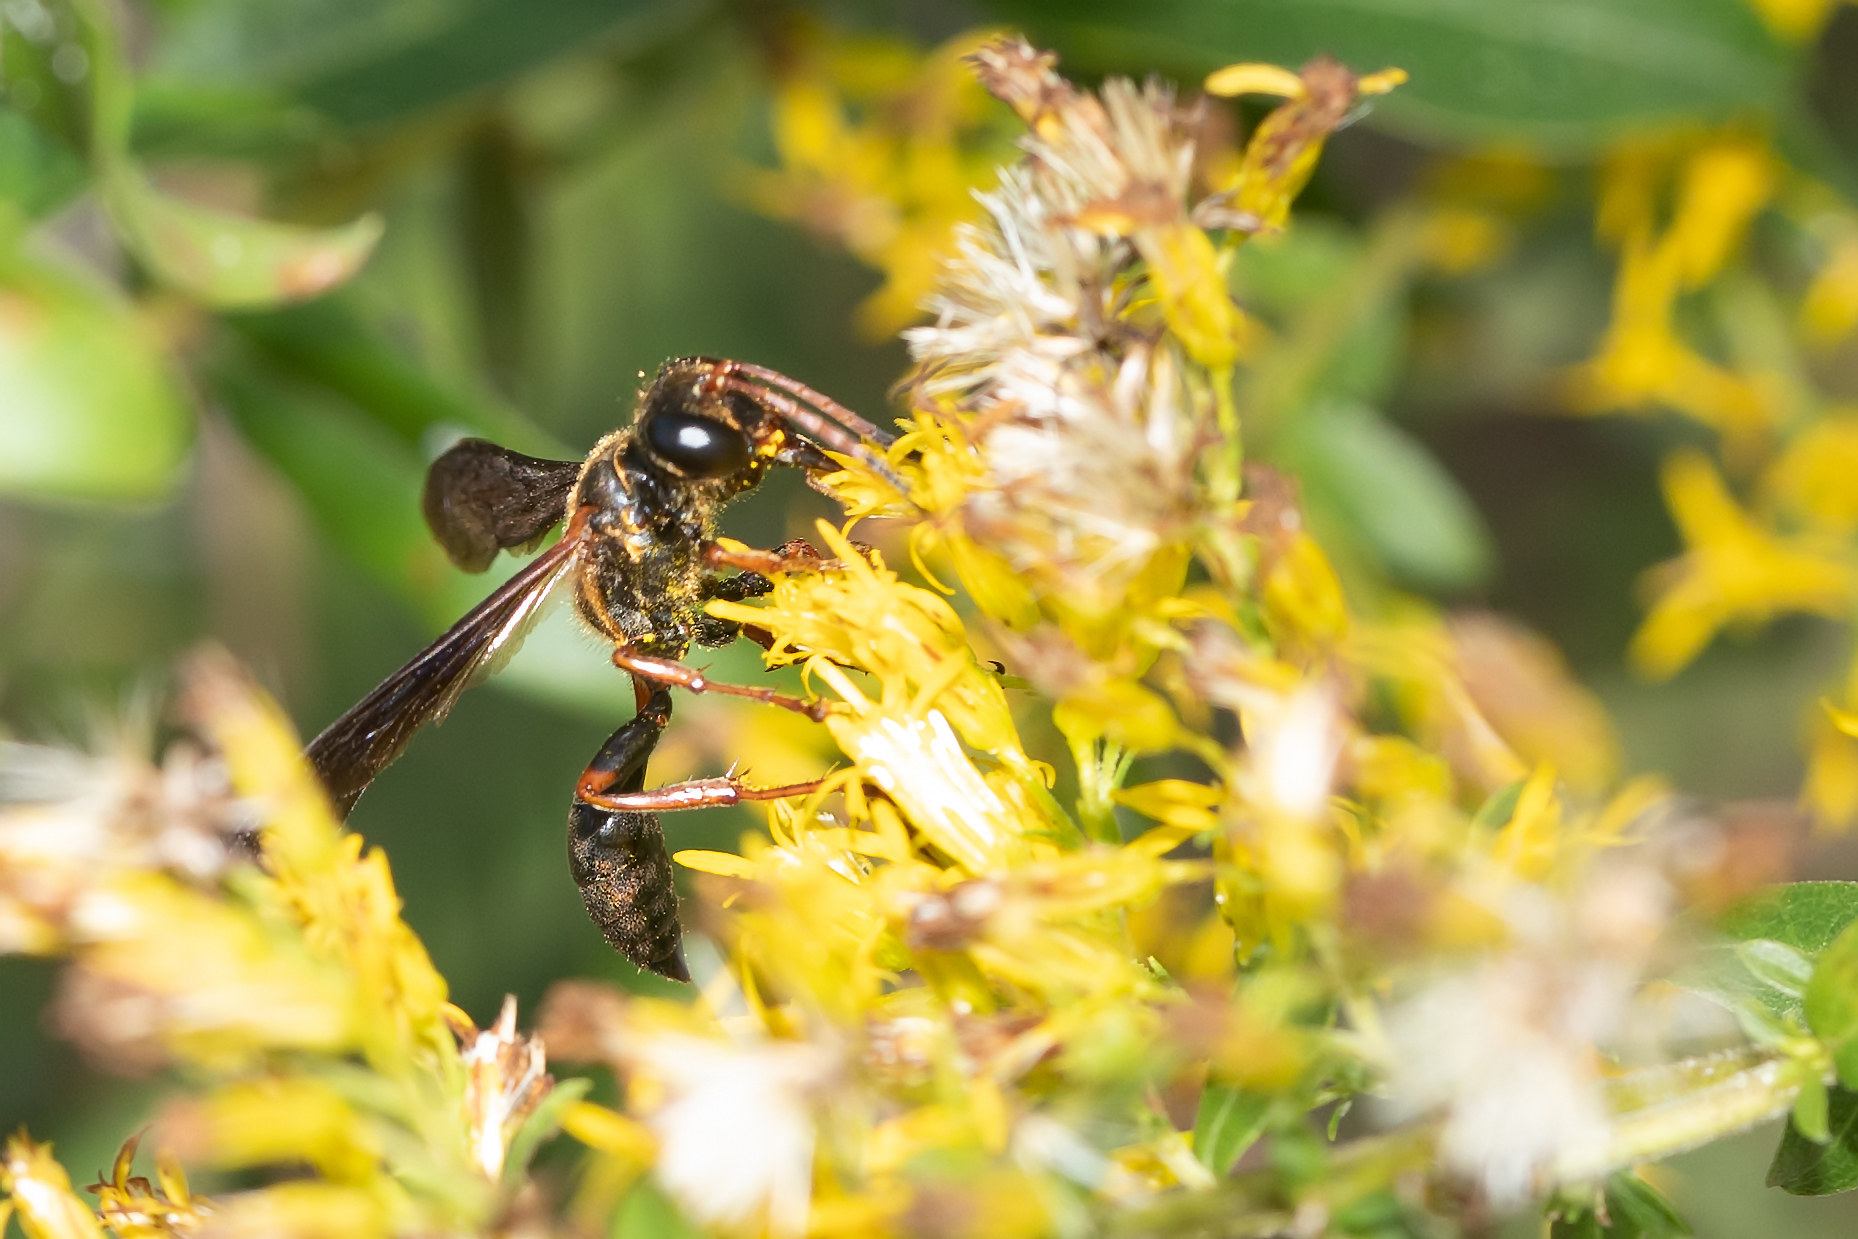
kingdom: Animalia
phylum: Arthropoda
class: Insecta
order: Hymenoptera
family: Sphecidae
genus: Isodontia
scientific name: Isodontia exornata
